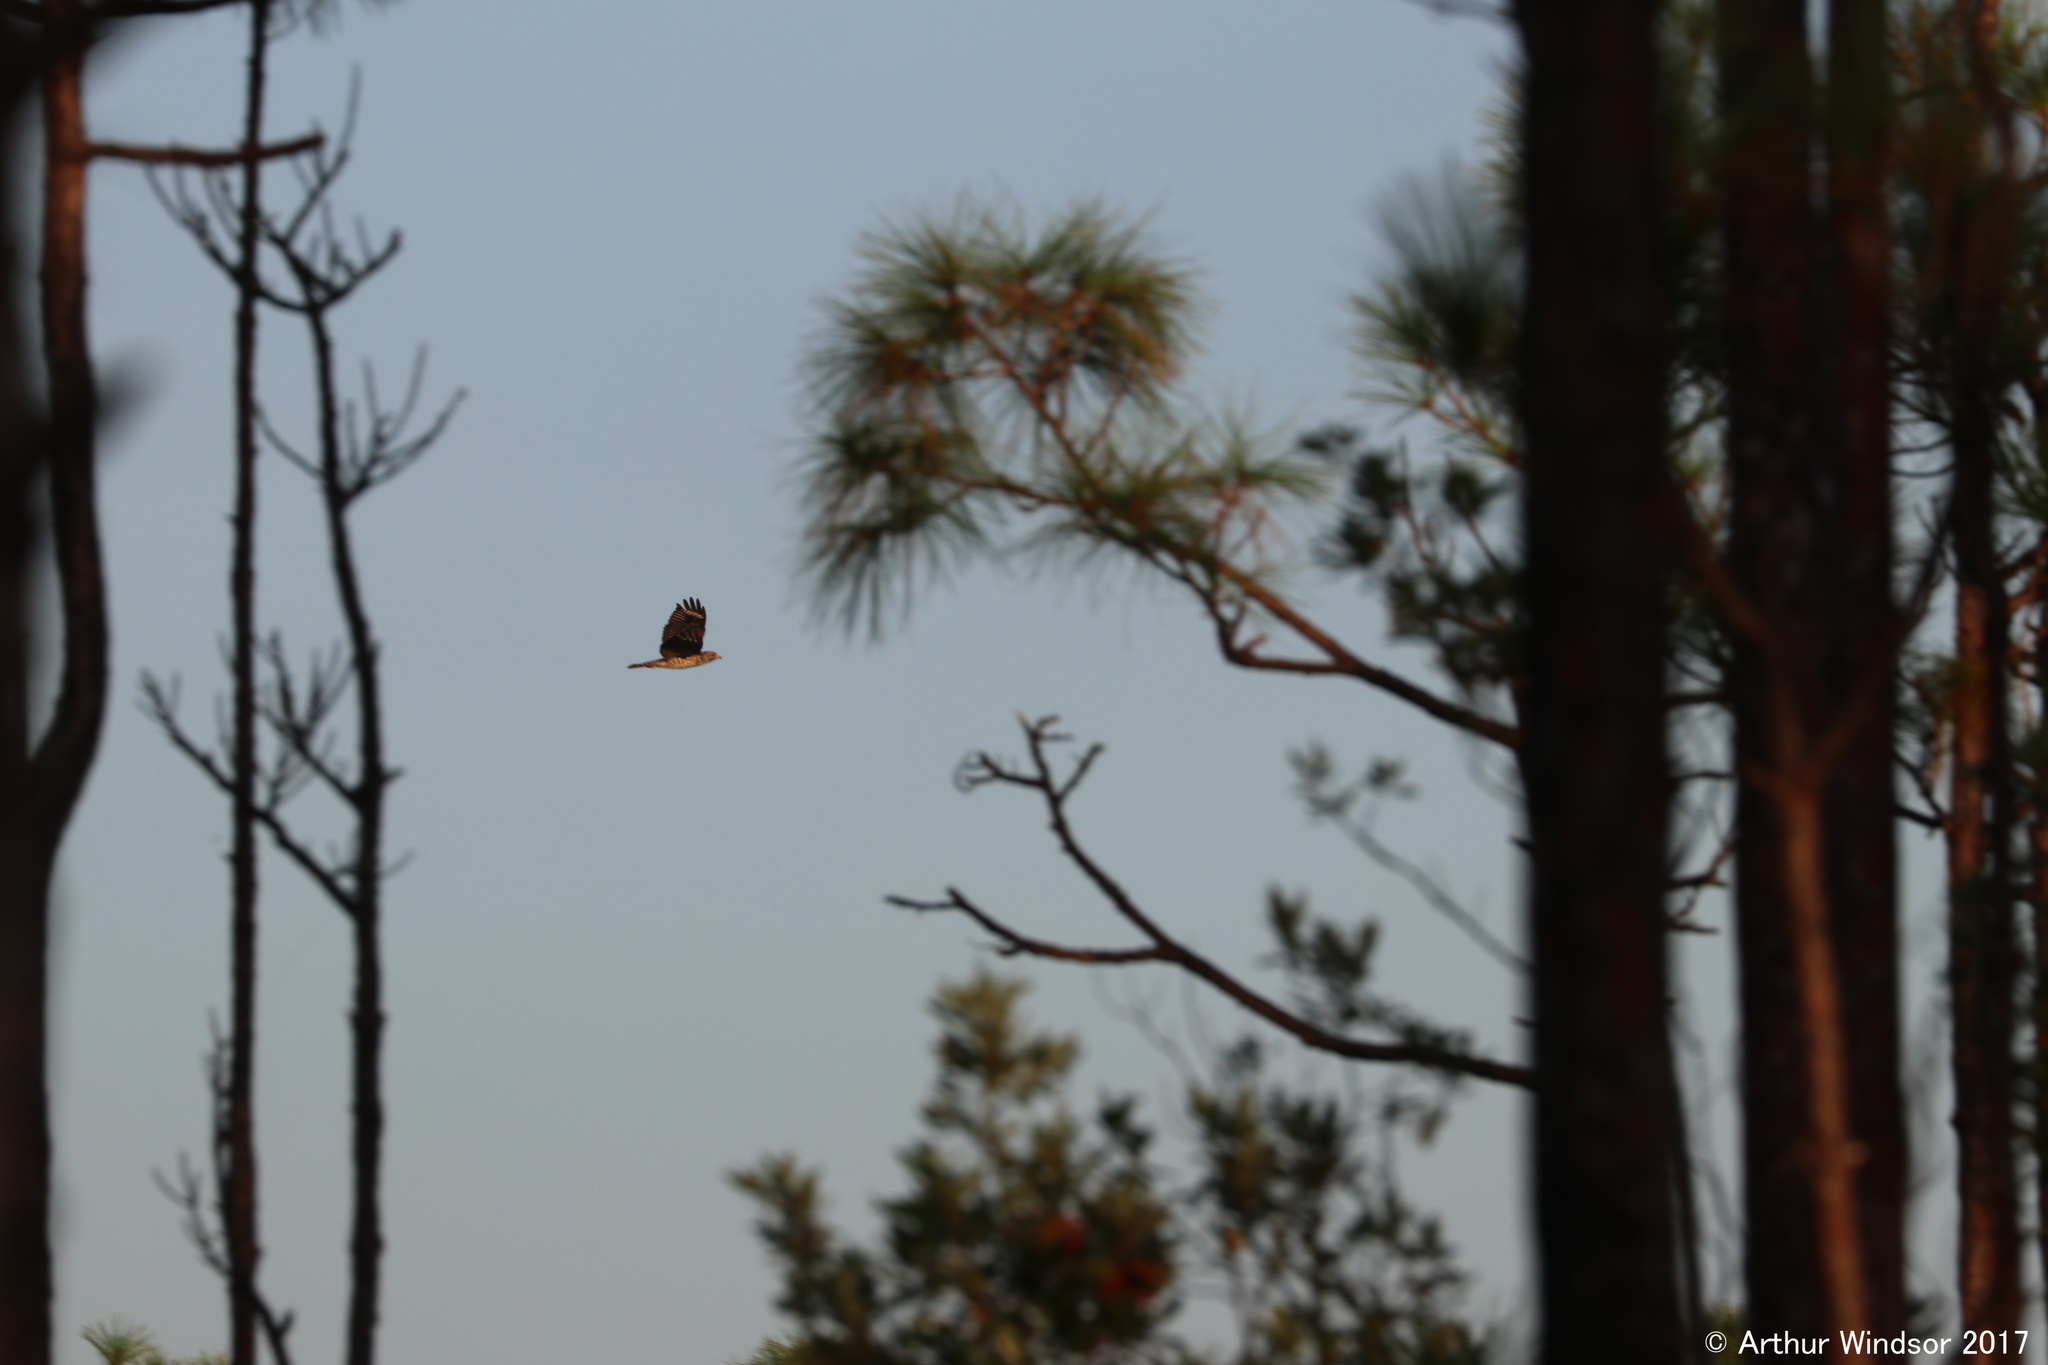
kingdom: Animalia
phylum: Chordata
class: Aves
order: Accipitriformes
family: Accipitridae
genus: Buteo
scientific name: Buteo lineatus
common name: Red-shouldered hawk
